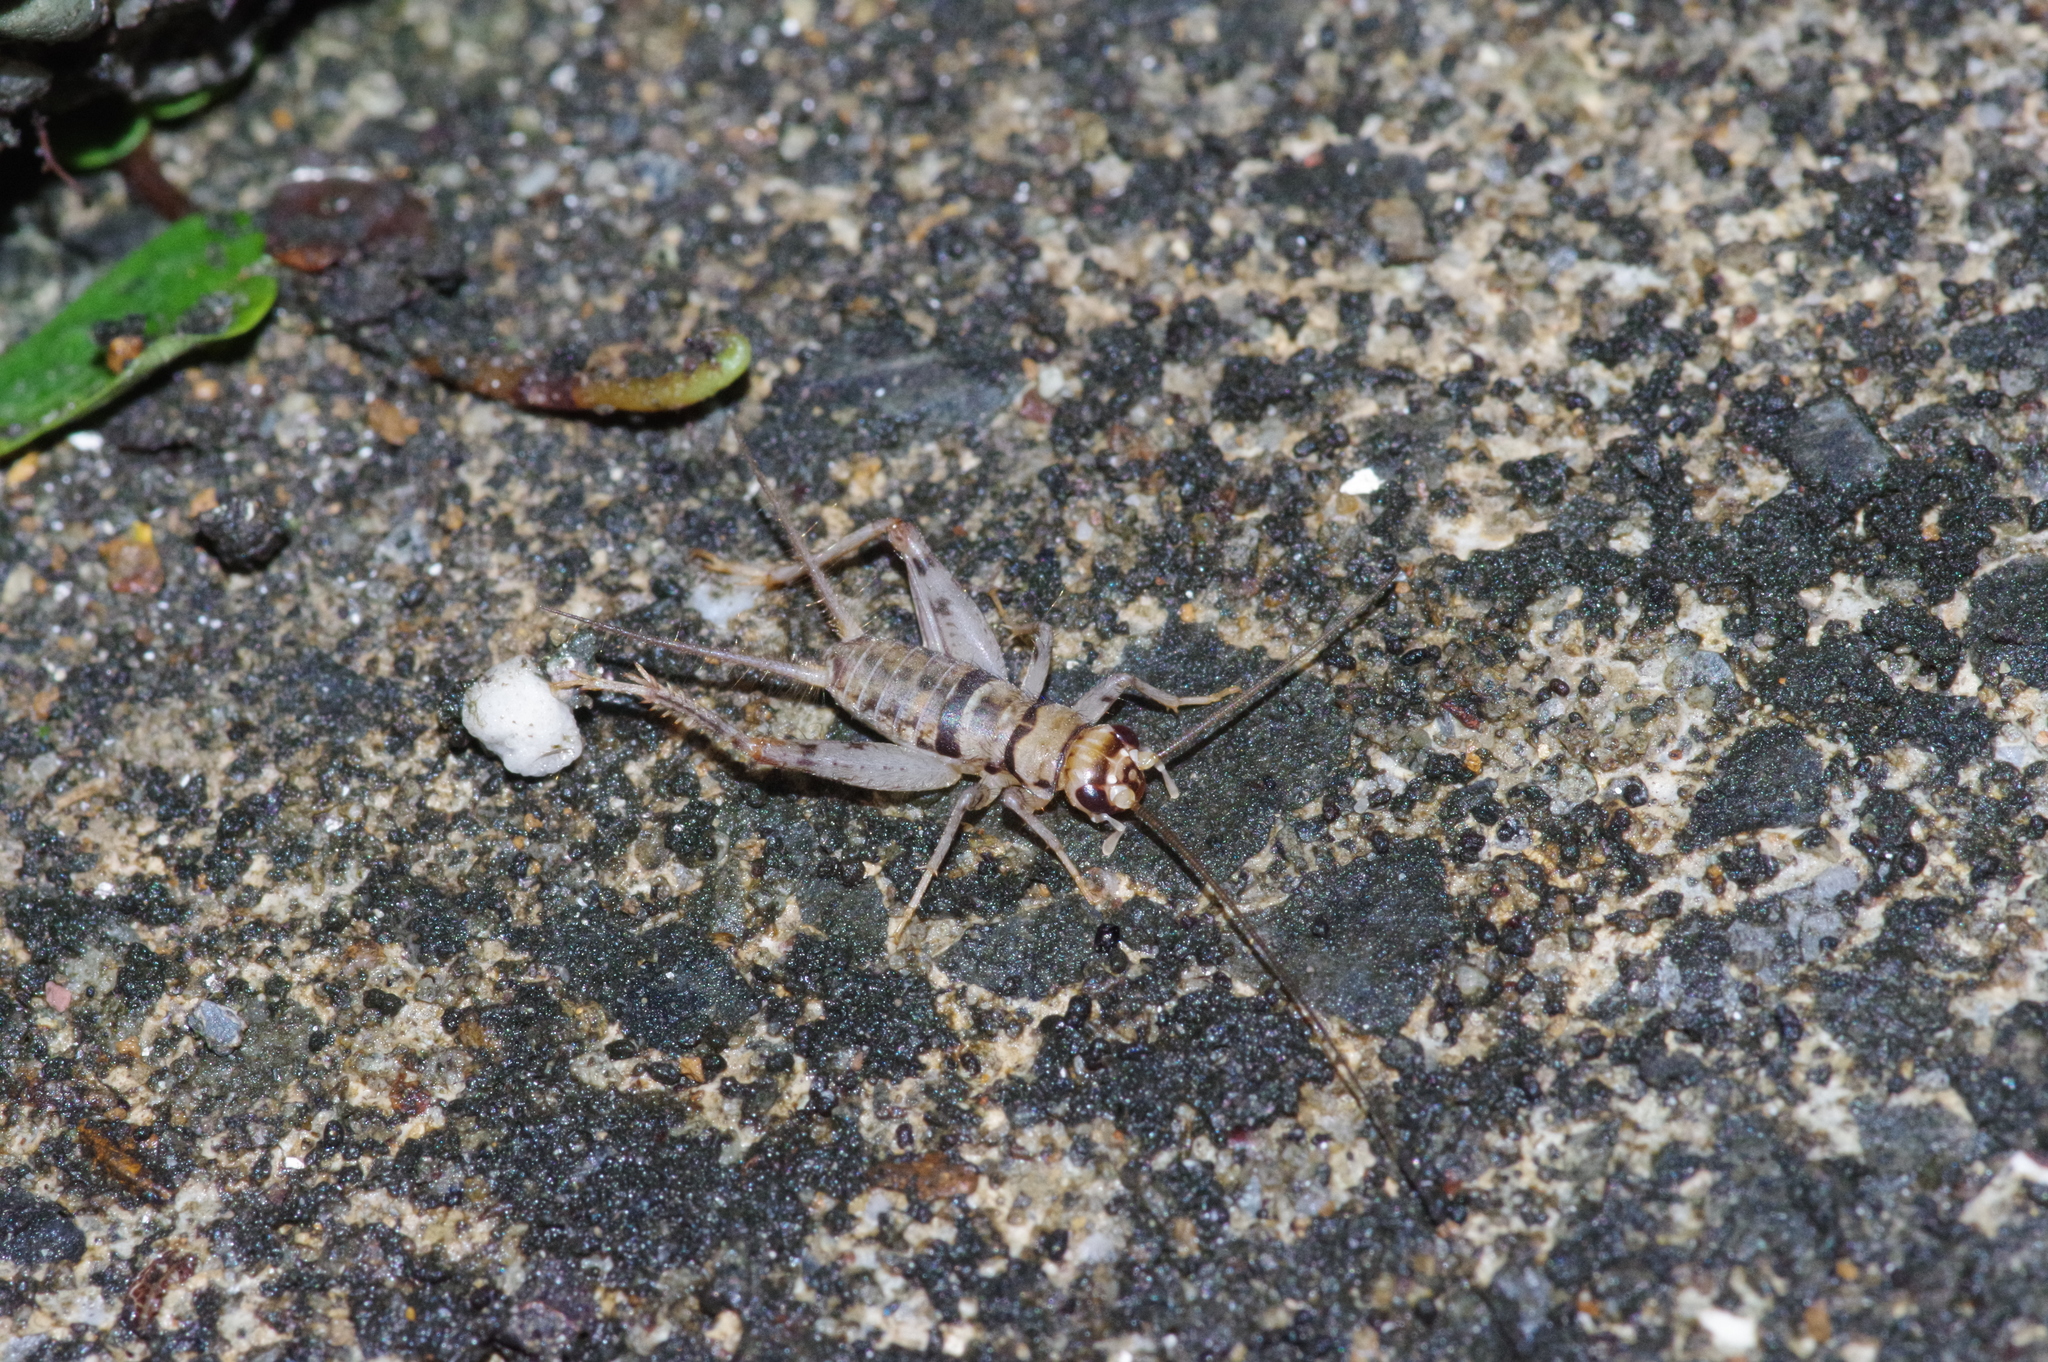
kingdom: Animalia
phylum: Arthropoda
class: Insecta
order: Orthoptera
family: Gryllidae
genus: Gryllodes
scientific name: Gryllodes sigillatus
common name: Tropical house cricket
